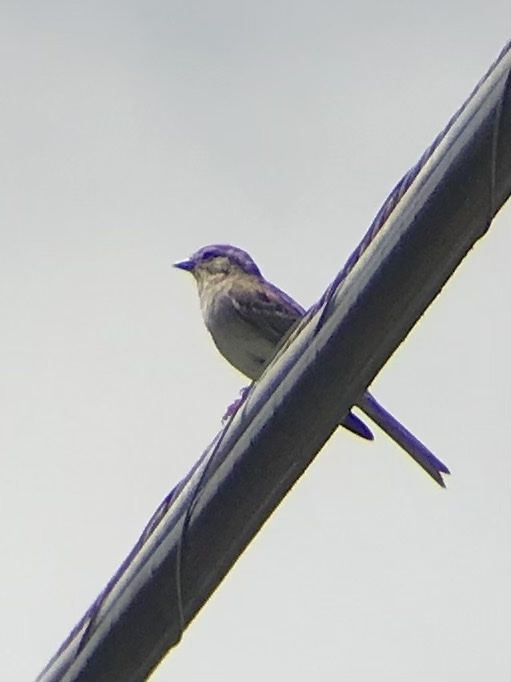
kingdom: Animalia
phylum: Chordata
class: Aves
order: Passeriformes
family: Passerellidae
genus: Spizella
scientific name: Spizella passerina
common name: Chipping sparrow
